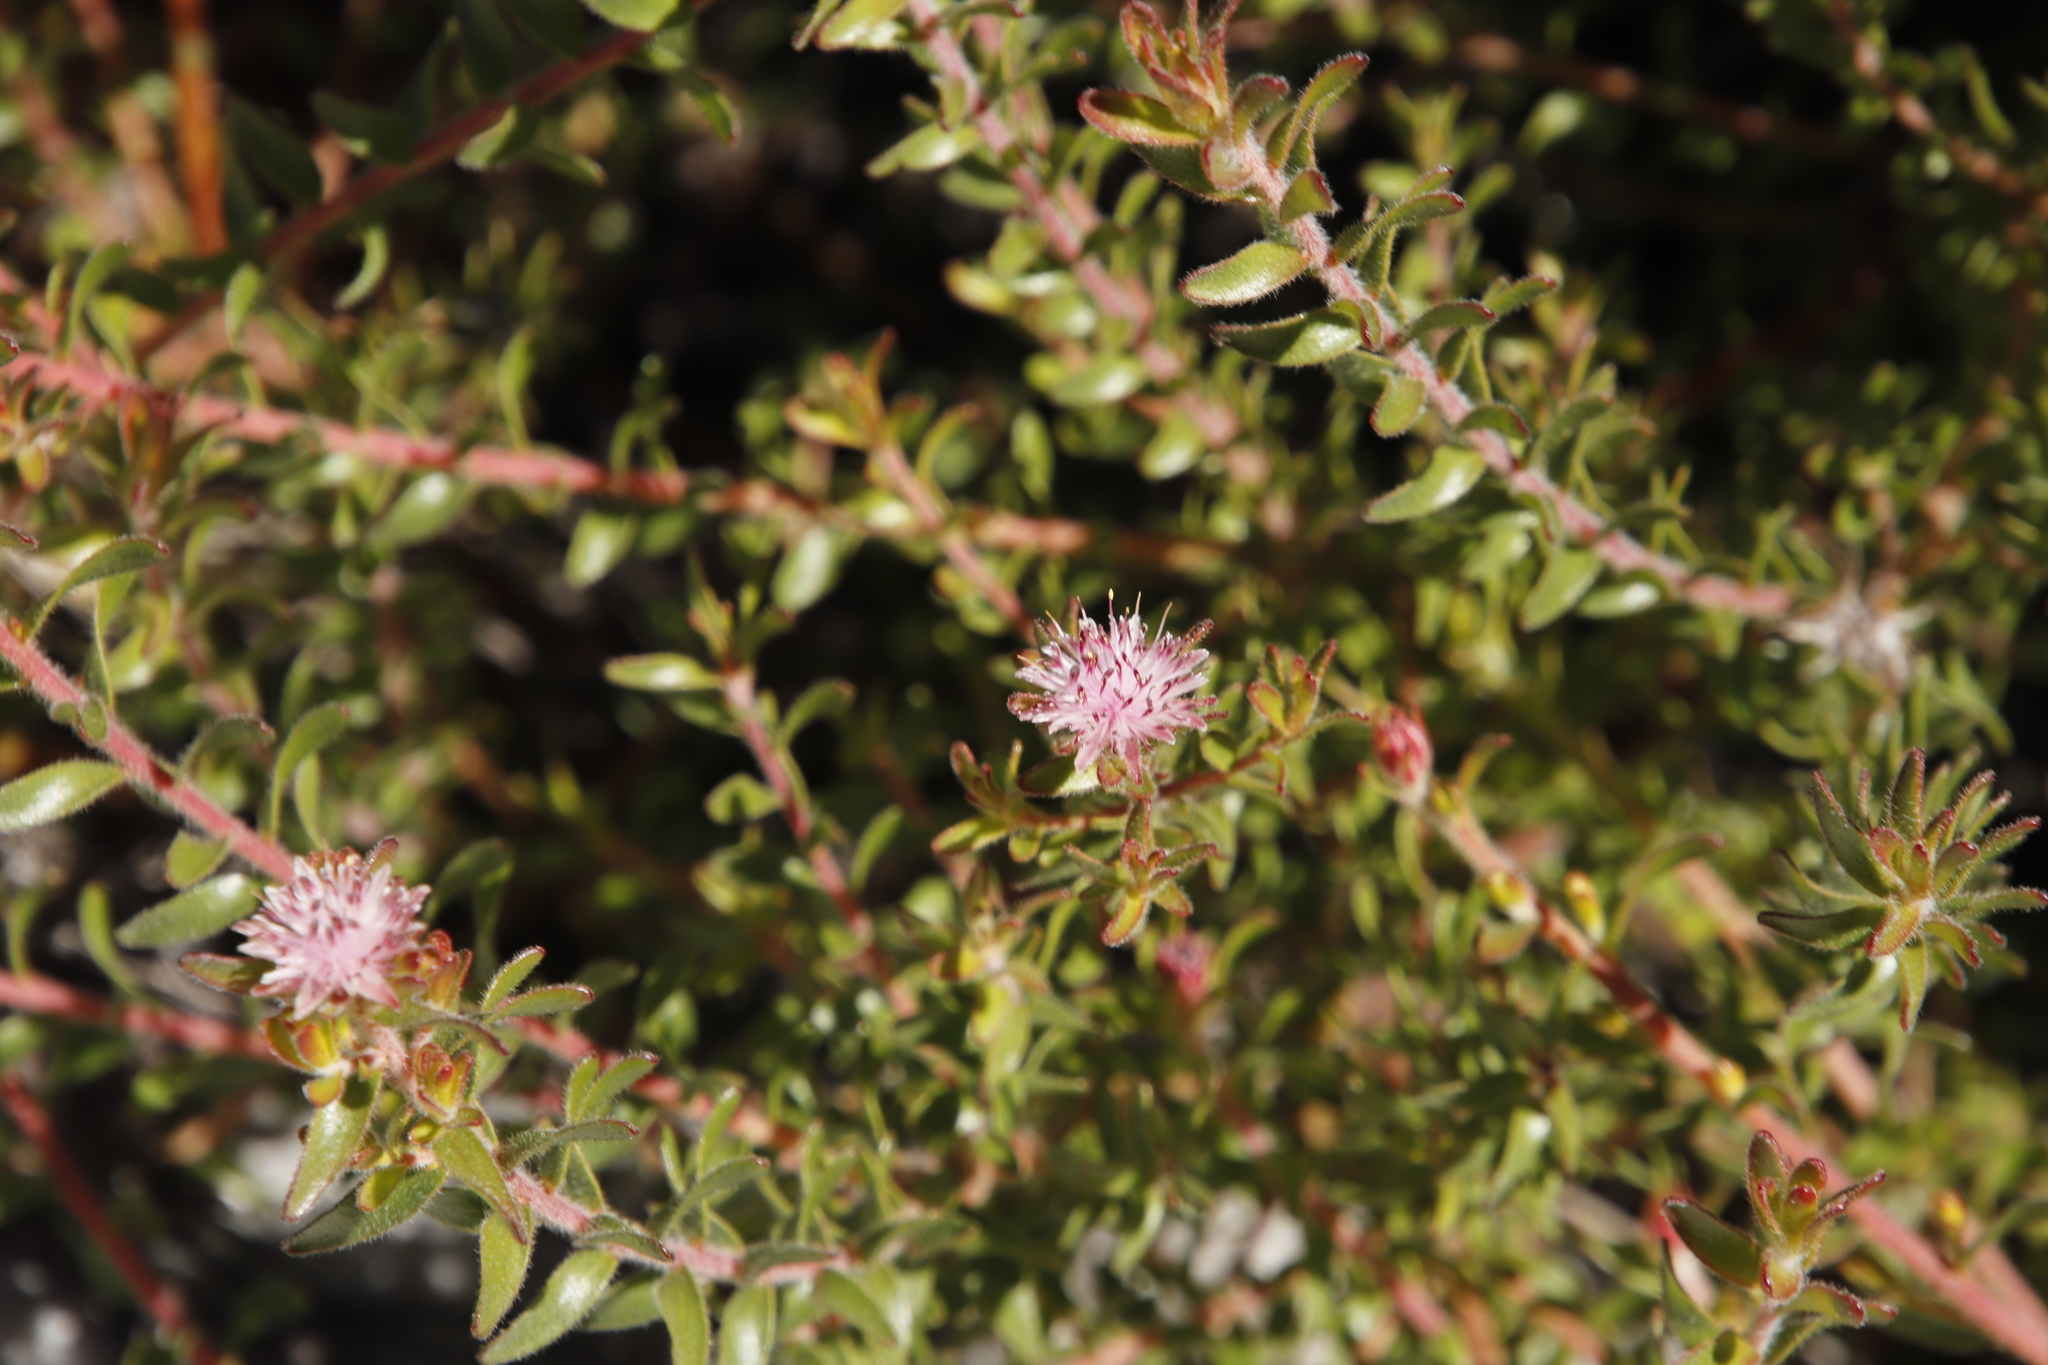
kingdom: Plantae
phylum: Tracheophyta
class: Magnoliopsida
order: Proteales
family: Proteaceae
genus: Diastella
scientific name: Diastella divaricata
